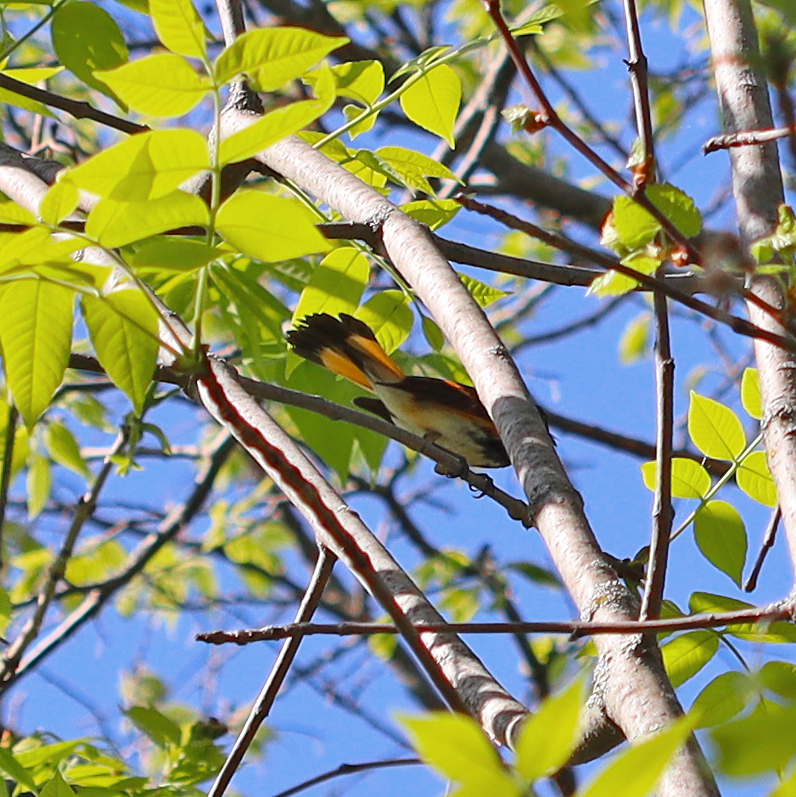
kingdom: Animalia
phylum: Chordata
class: Aves
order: Passeriformes
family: Parulidae
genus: Setophaga
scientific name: Setophaga ruticilla
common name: American redstart
